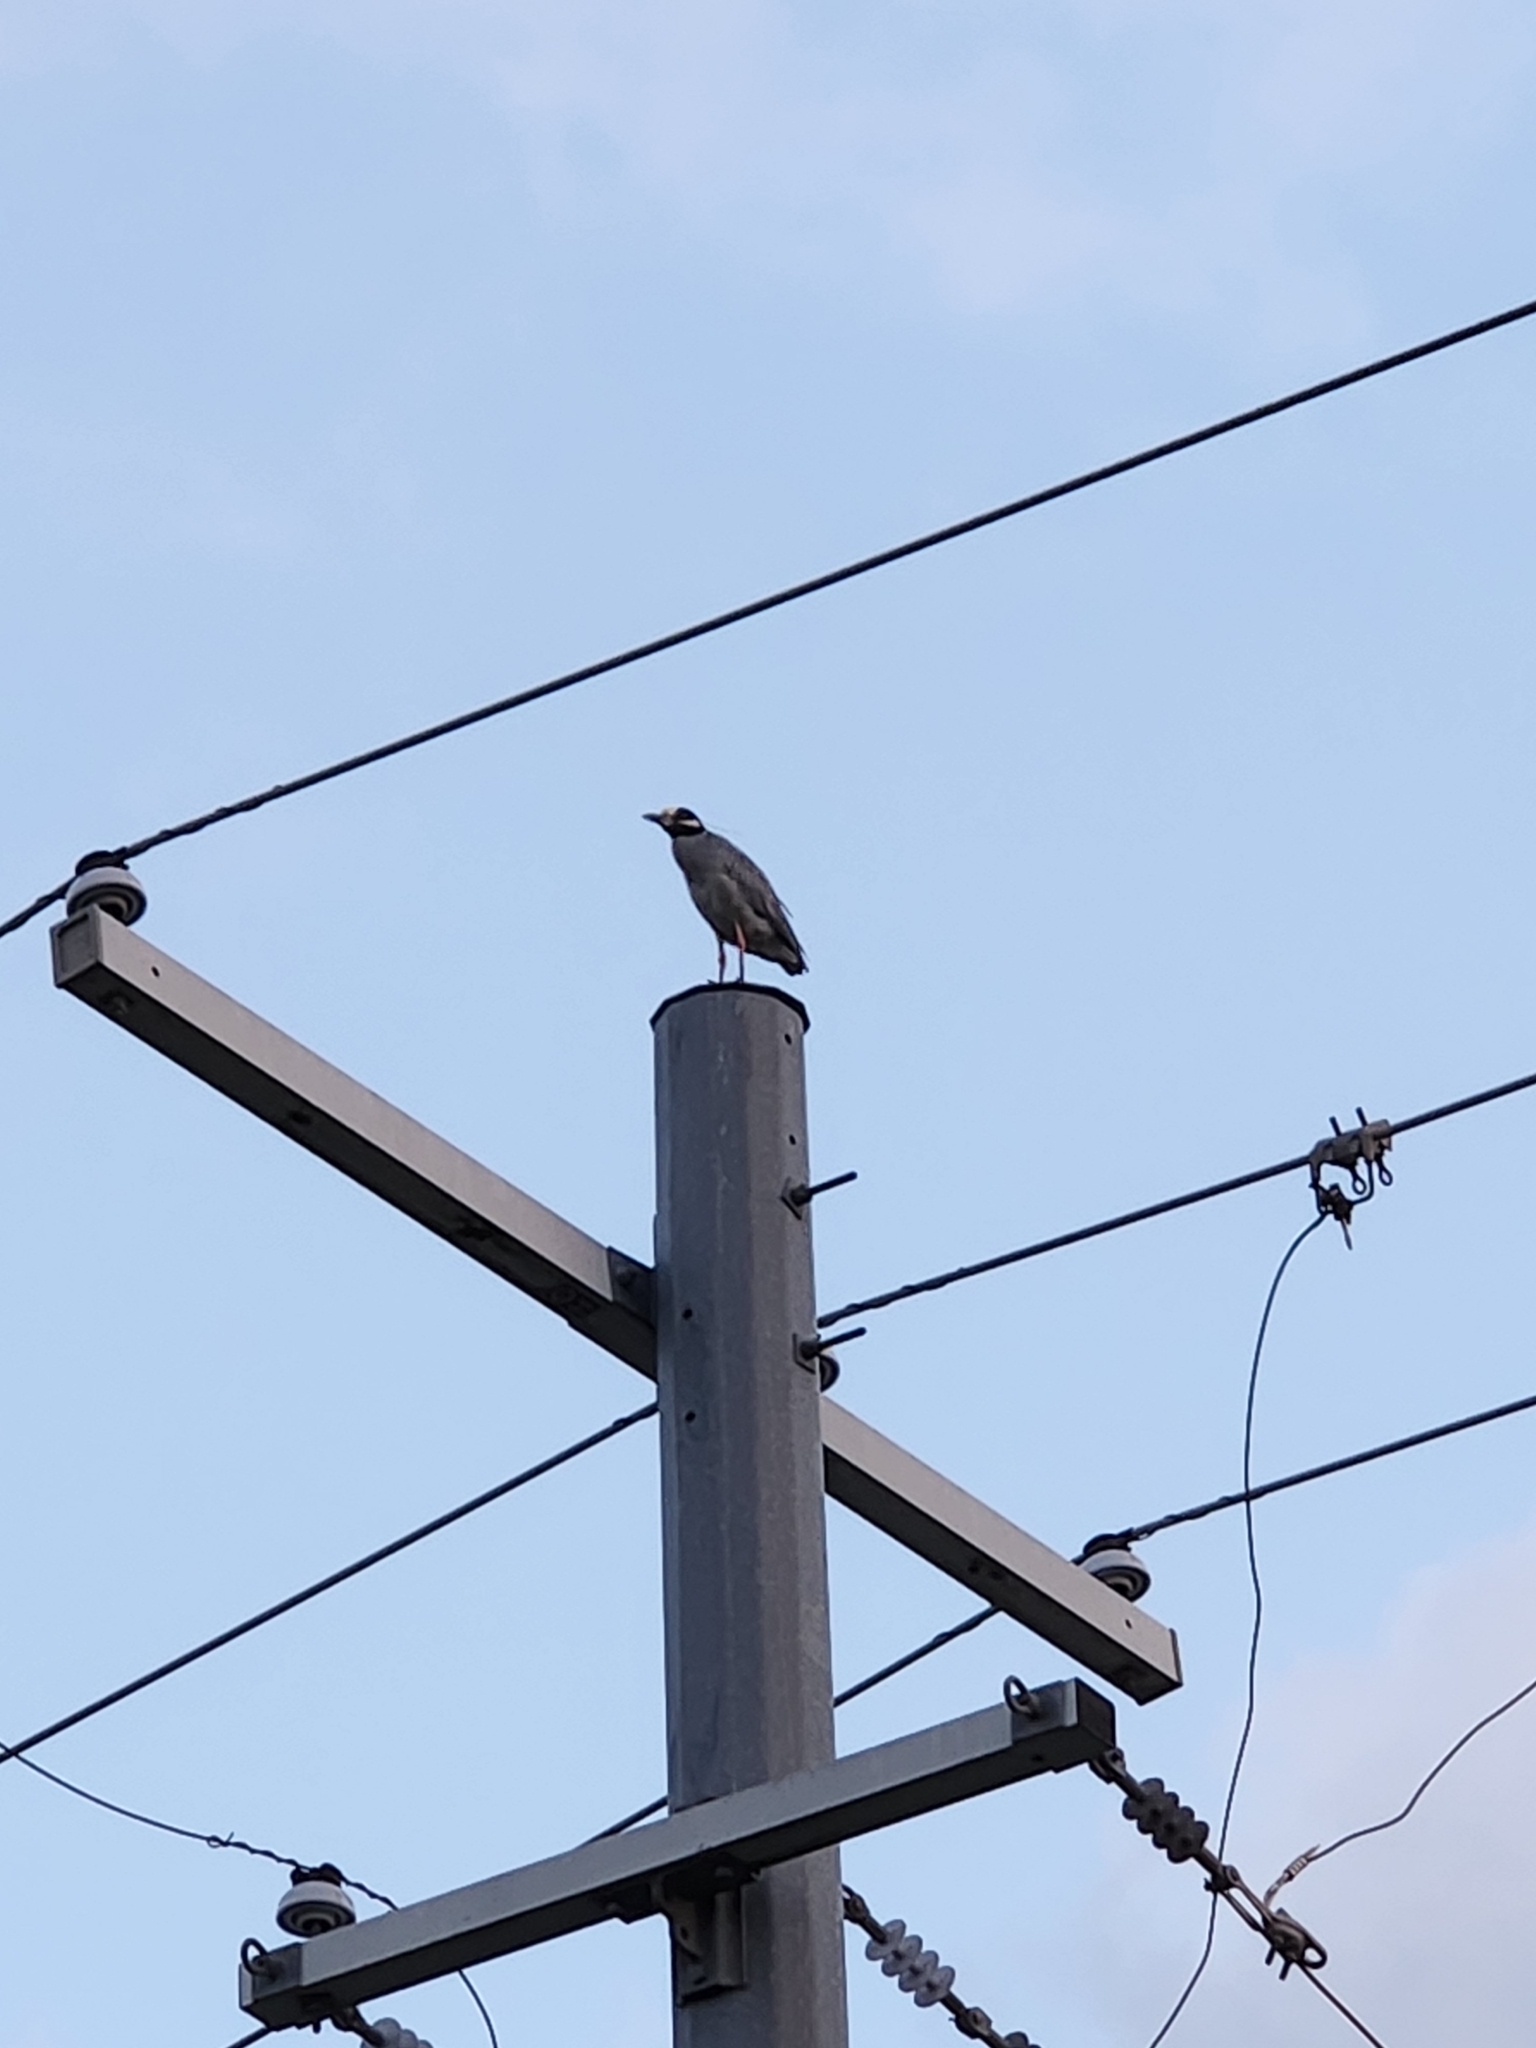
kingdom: Animalia
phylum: Chordata
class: Aves
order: Pelecaniformes
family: Ardeidae
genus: Nyctanassa
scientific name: Nyctanassa violacea
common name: Yellow-crowned night heron
